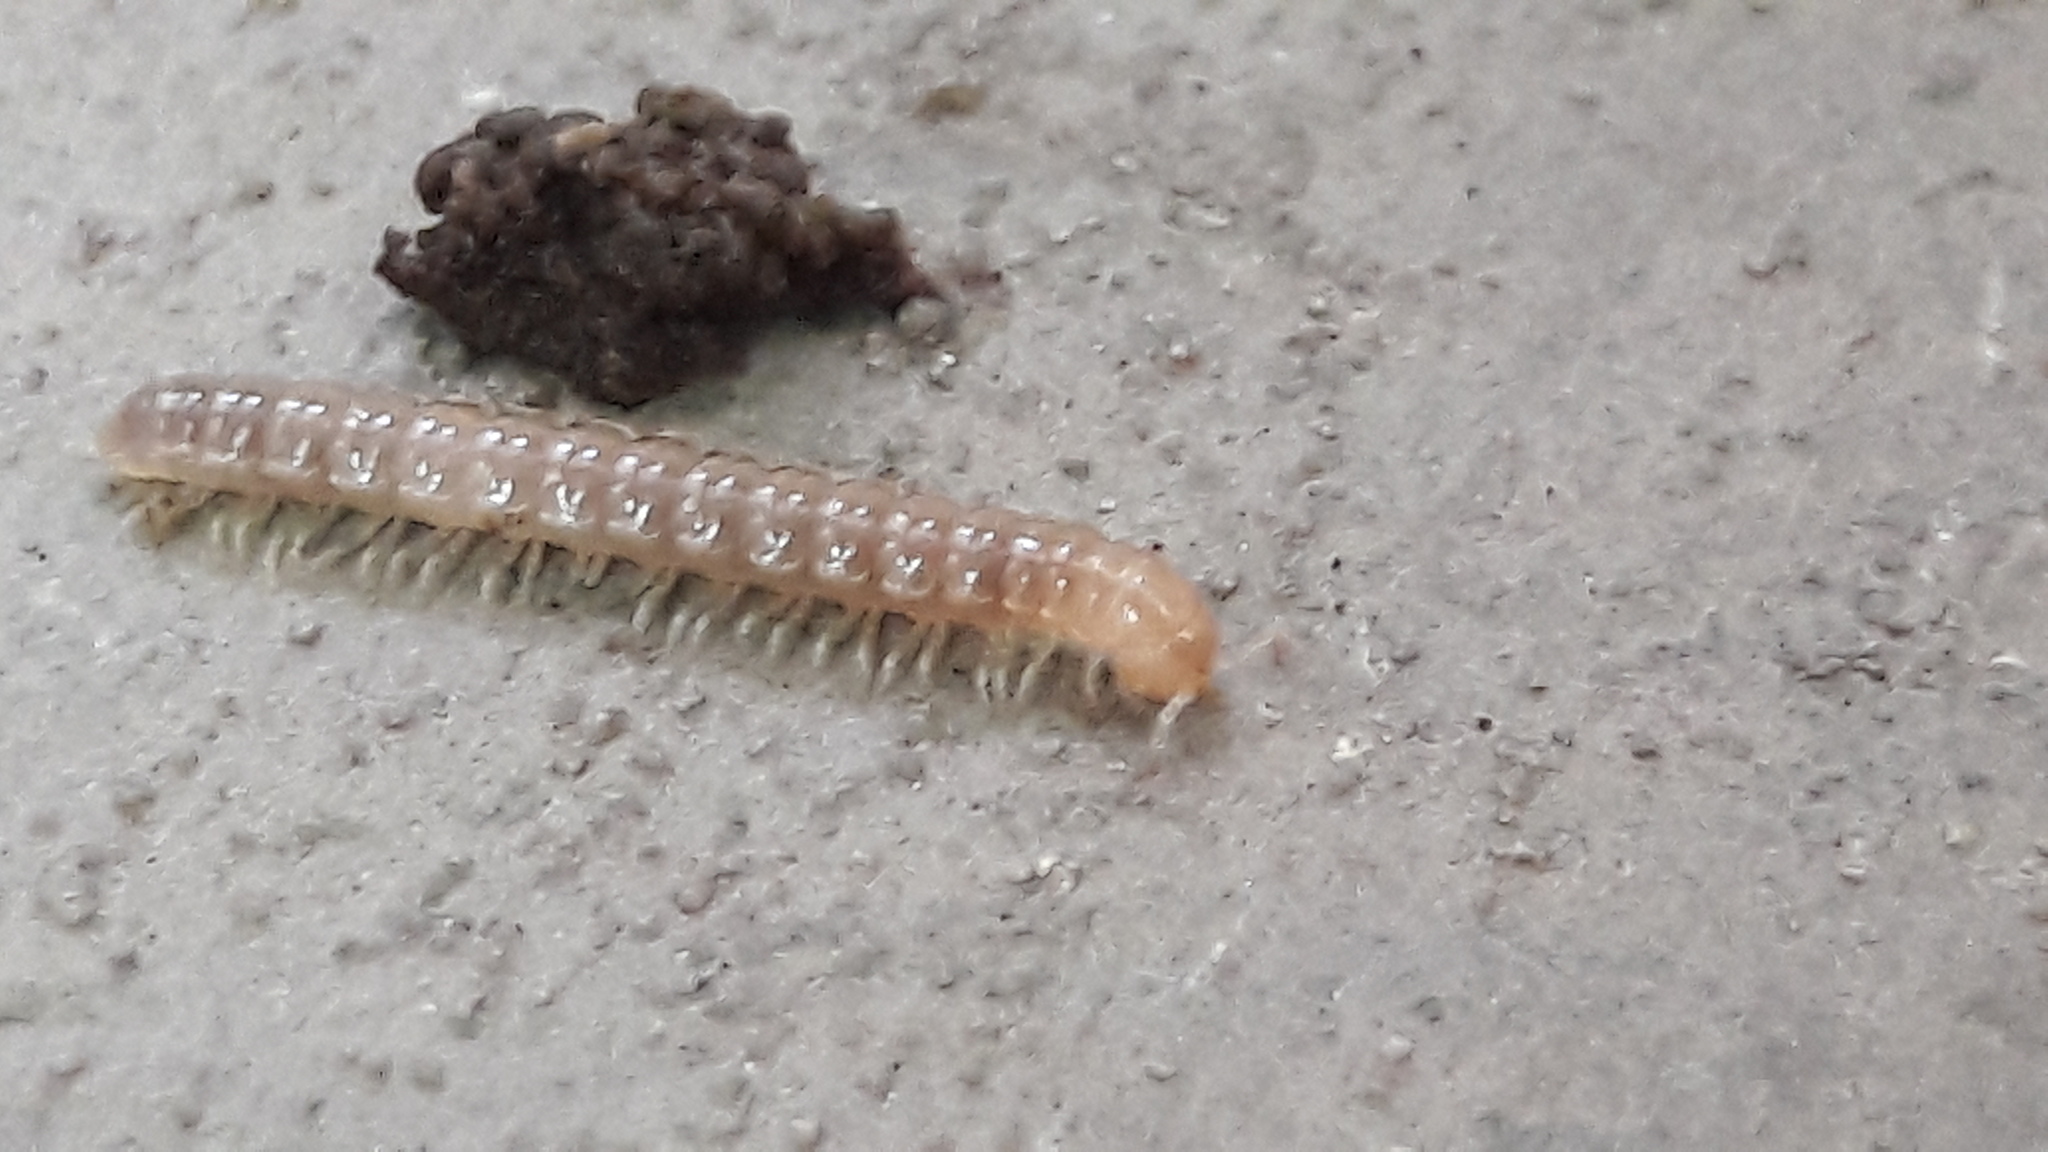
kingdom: Animalia
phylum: Arthropoda
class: Diplopoda
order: Polydesmida
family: Paradoxosomatidae
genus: Oxidus
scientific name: Oxidus gracilis
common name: Greenhouse millipede
